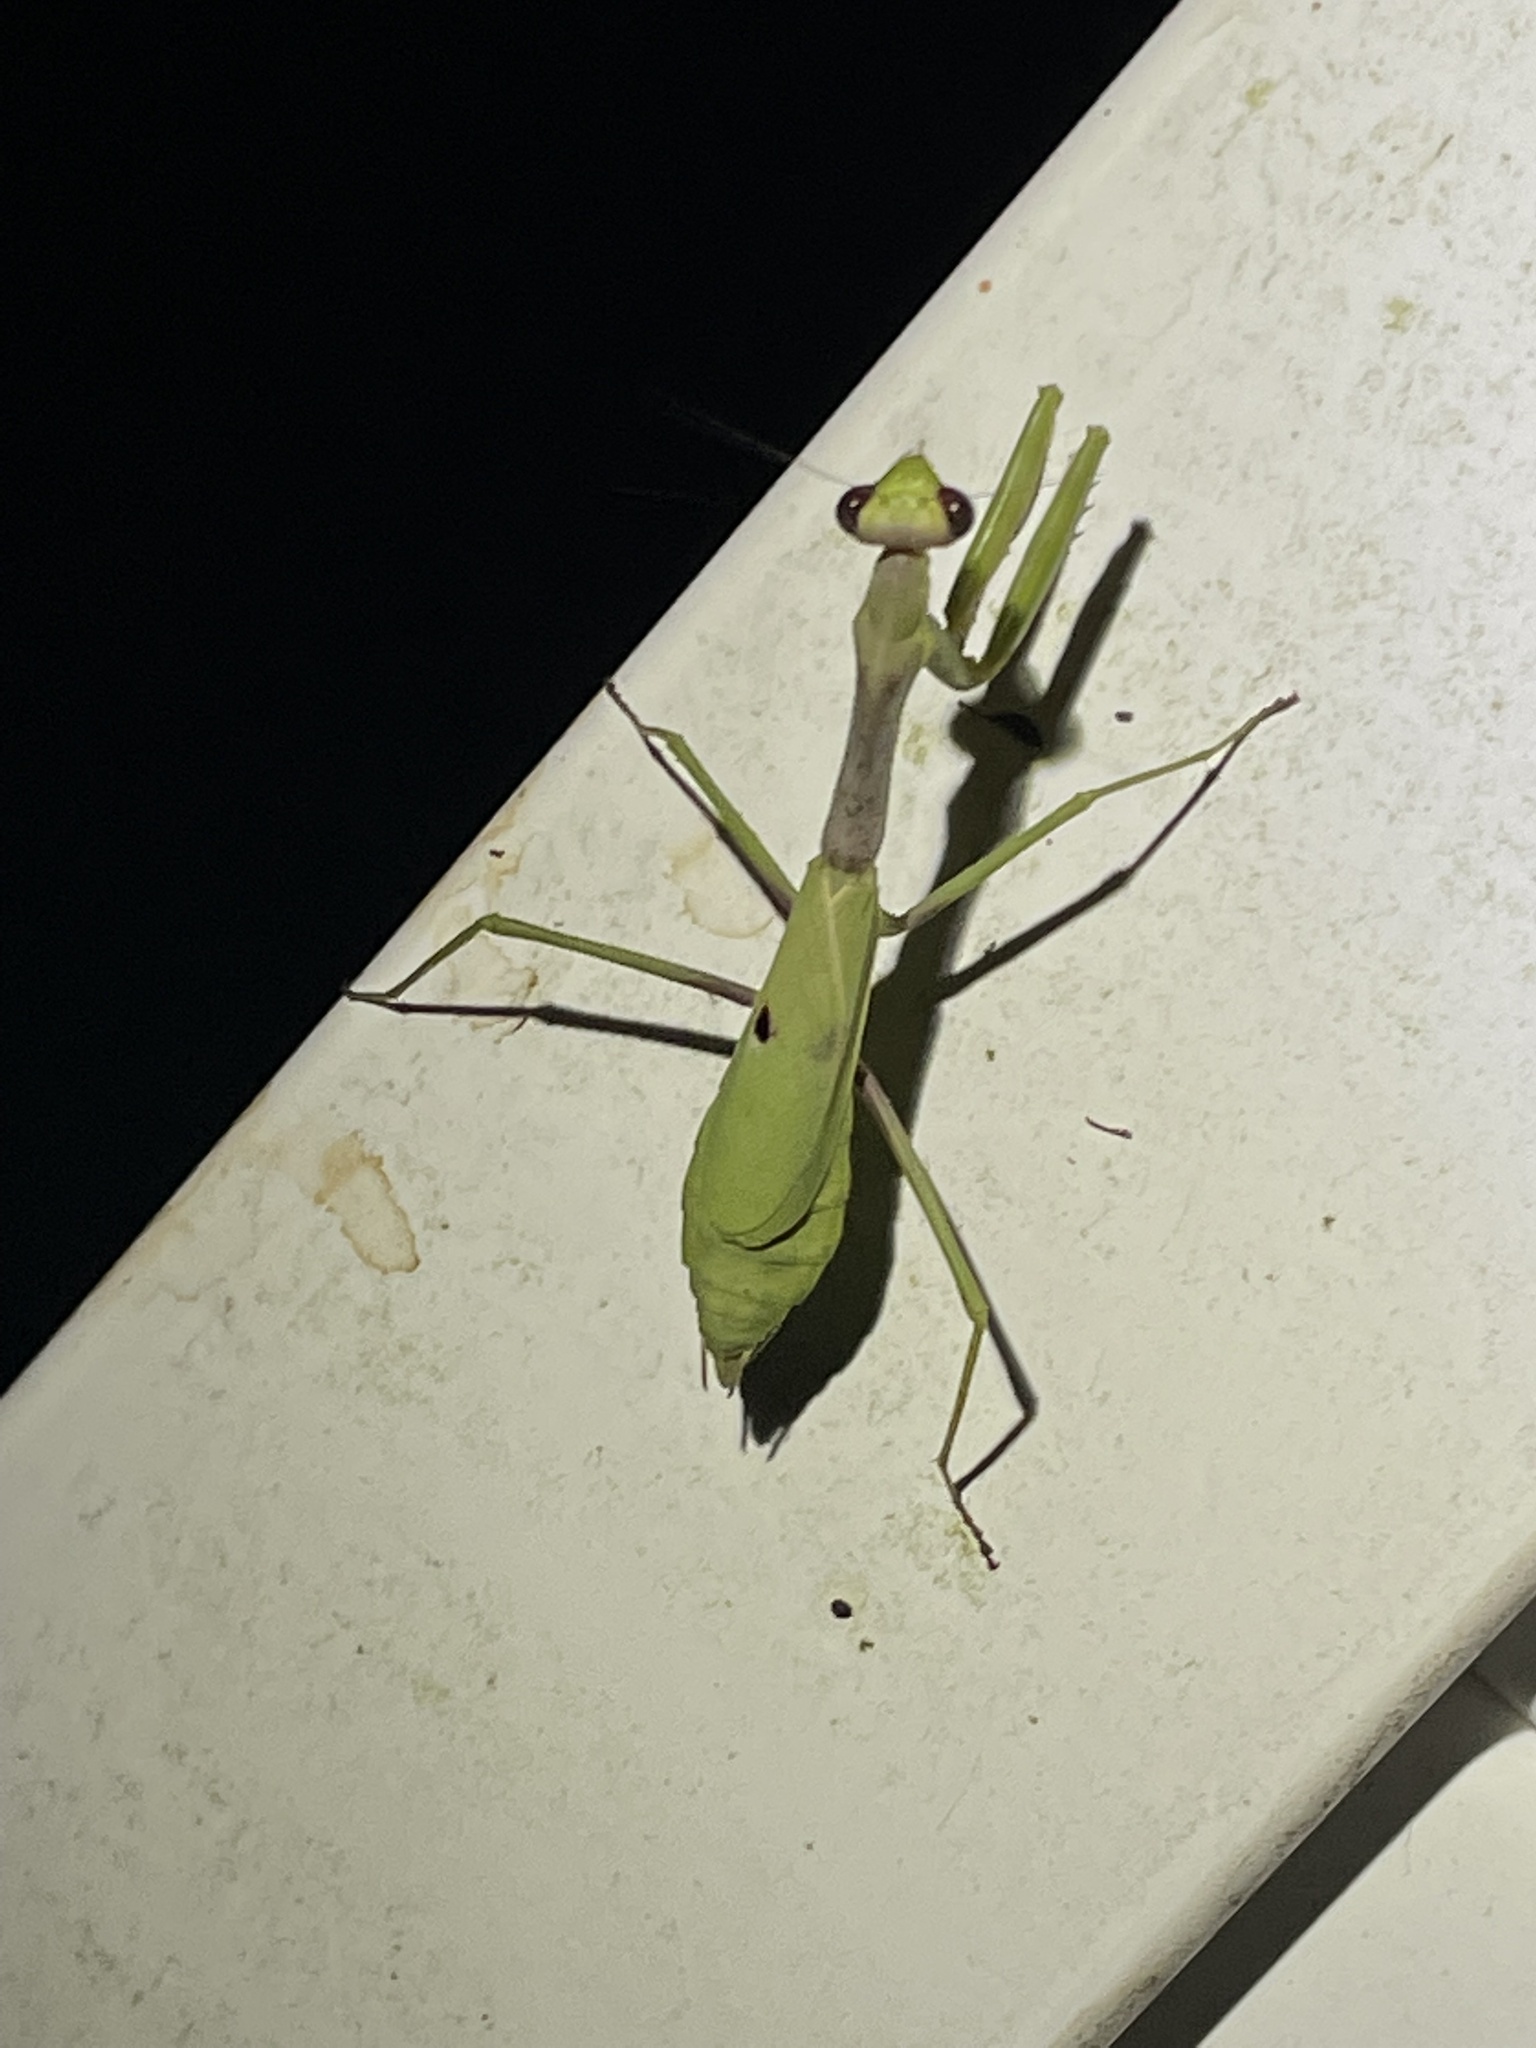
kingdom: Animalia
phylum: Arthropoda
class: Insecta
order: Mantodea
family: Mantidae
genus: Stagmomantis
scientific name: Stagmomantis carolina
